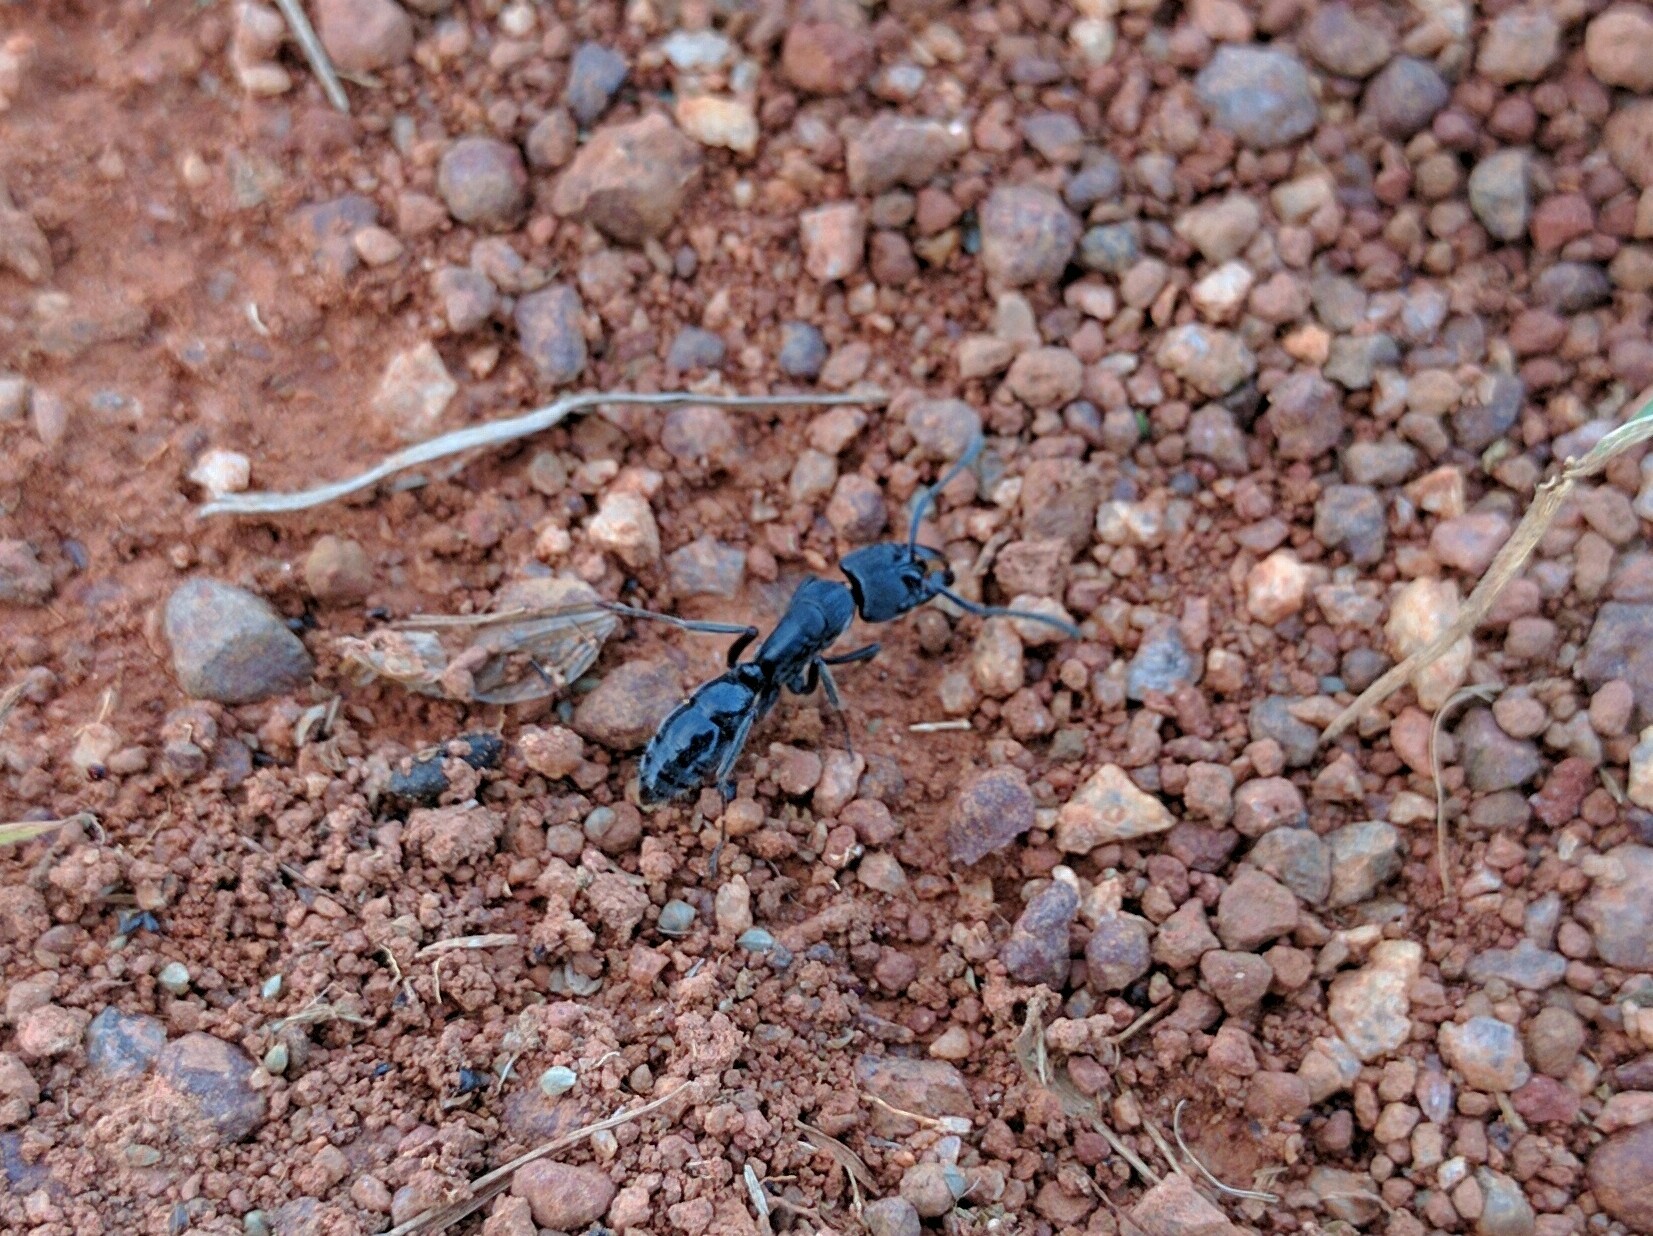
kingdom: Animalia
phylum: Arthropoda
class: Insecta
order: Hymenoptera
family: Formicidae
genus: Paltothyreus
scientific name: Paltothyreus tarsatus
